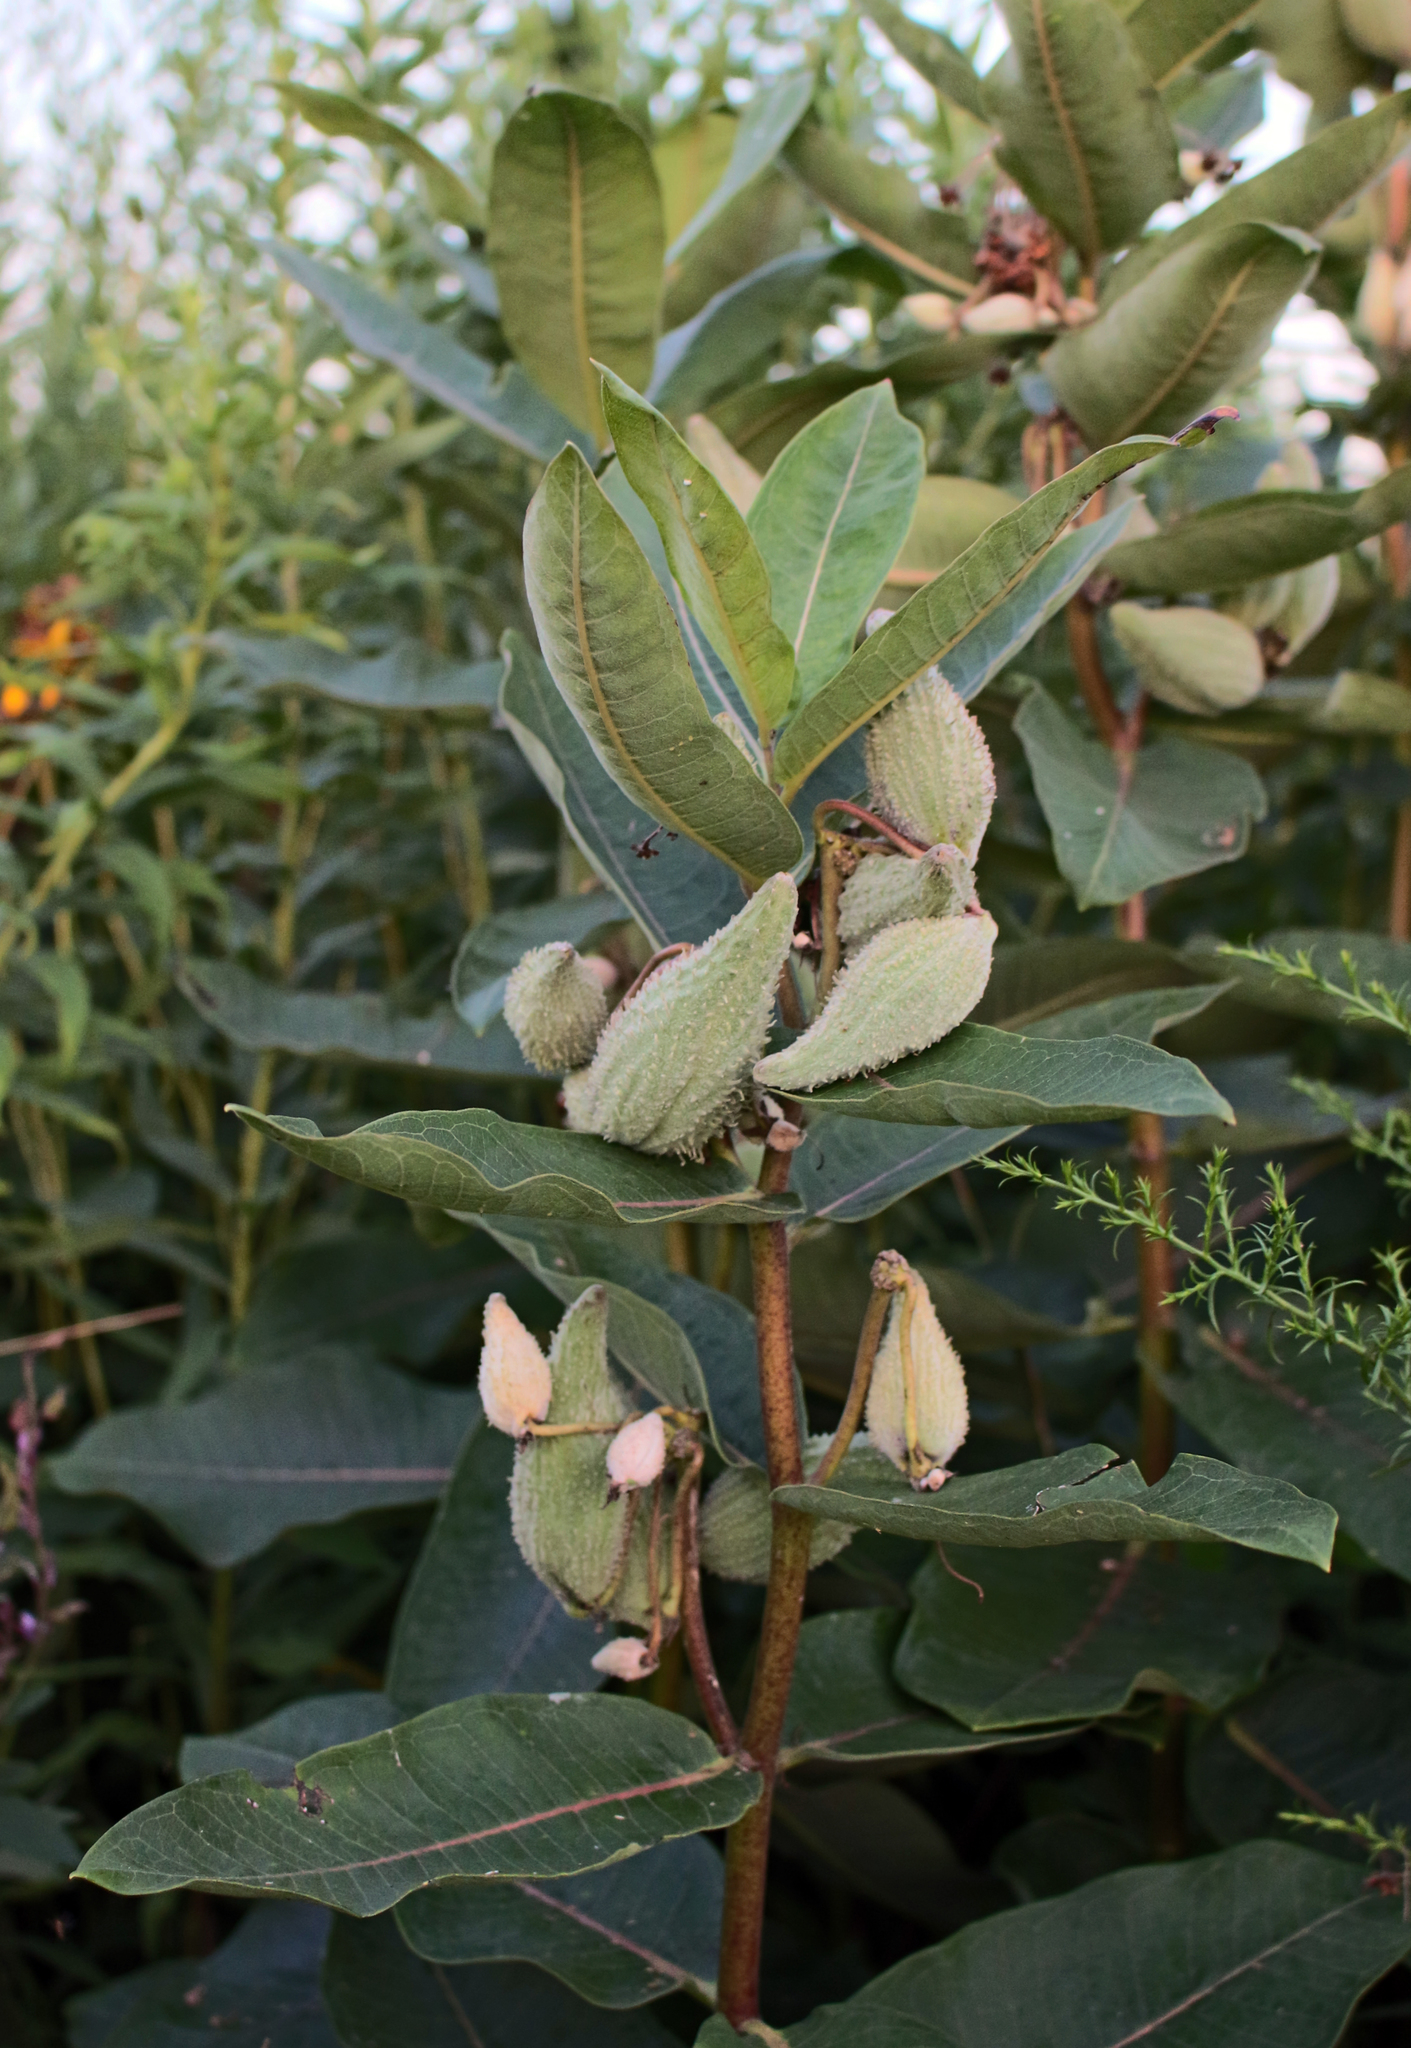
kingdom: Plantae
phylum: Tracheophyta
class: Magnoliopsida
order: Gentianales
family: Apocynaceae
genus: Asclepias
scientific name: Asclepias syriaca
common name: Common milkweed
